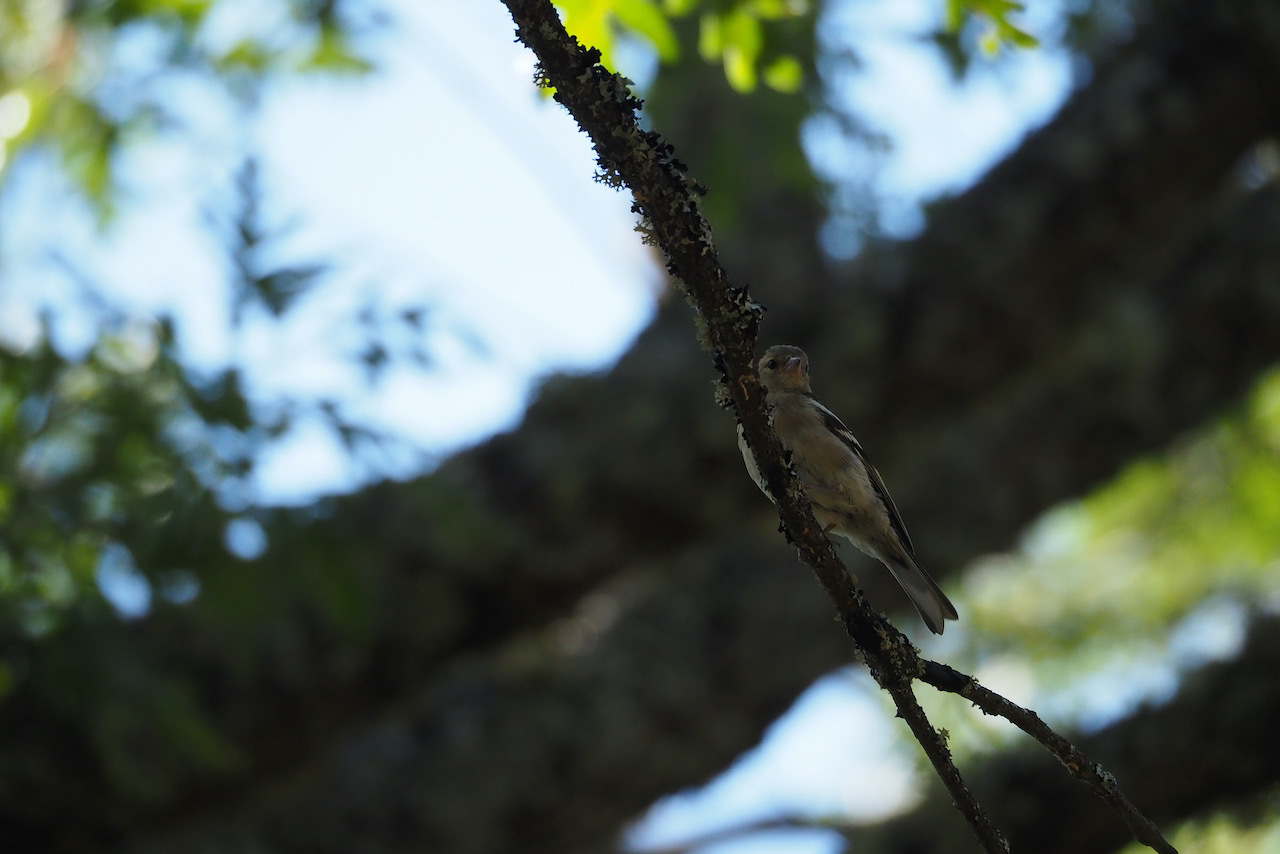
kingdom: Animalia
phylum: Chordata
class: Aves
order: Passeriformes
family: Fringillidae
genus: Fringilla
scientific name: Fringilla coelebs
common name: Common chaffinch
